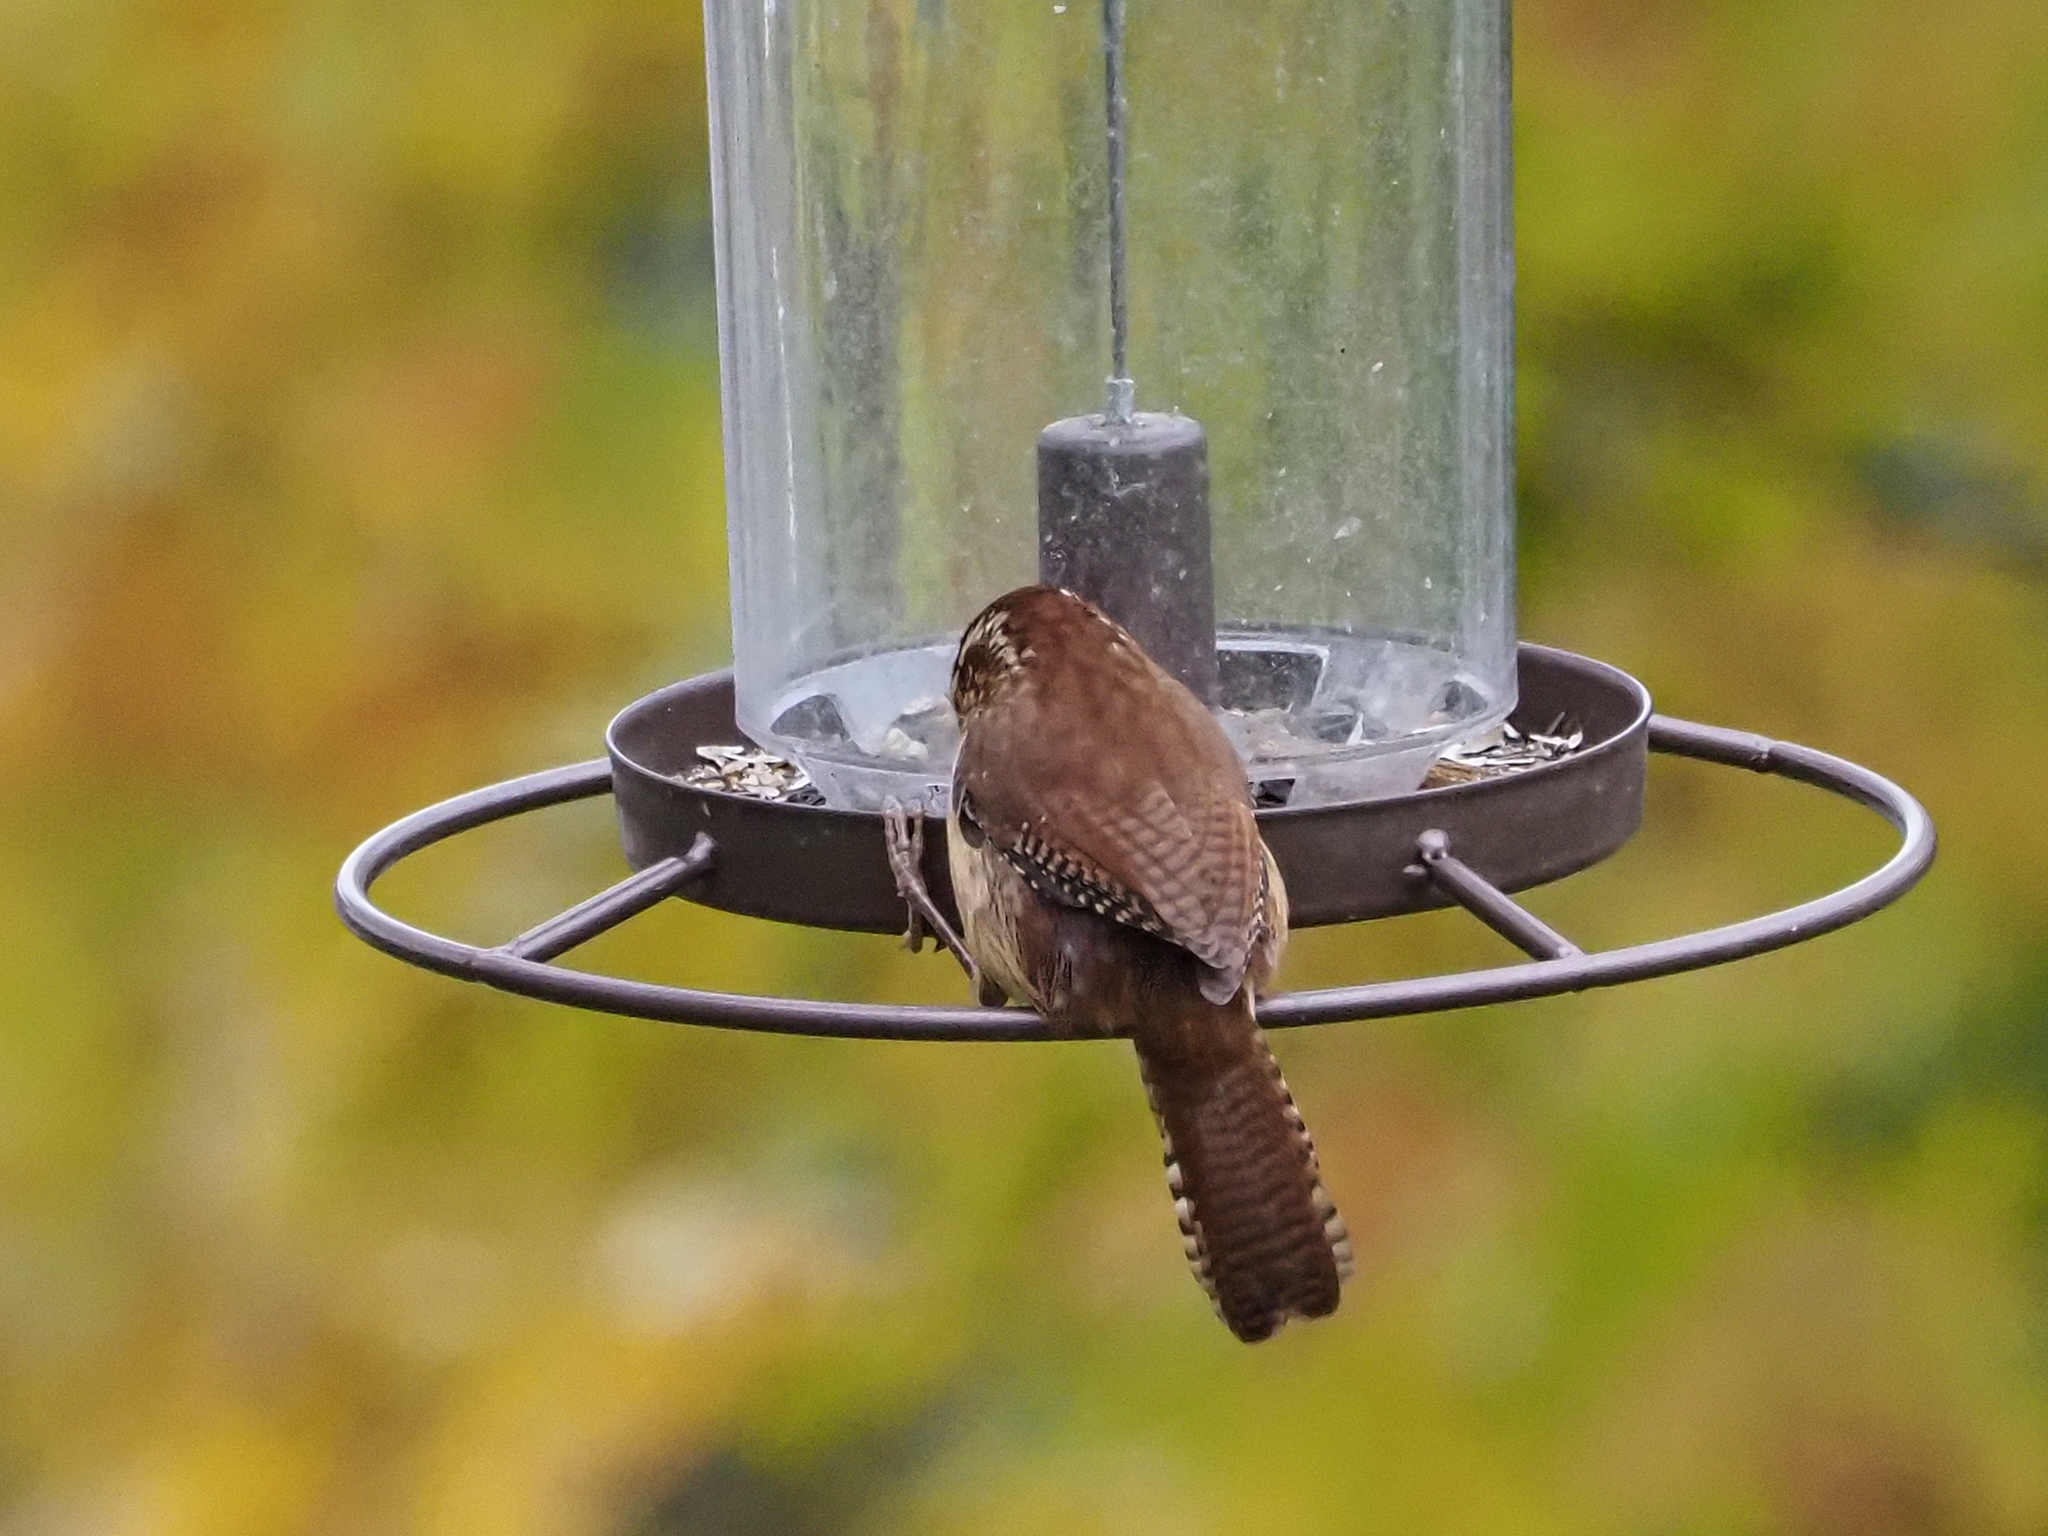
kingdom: Animalia
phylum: Chordata
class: Aves
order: Passeriformes
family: Troglodytidae
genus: Thryothorus
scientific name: Thryothorus ludovicianus
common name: Carolina wren
